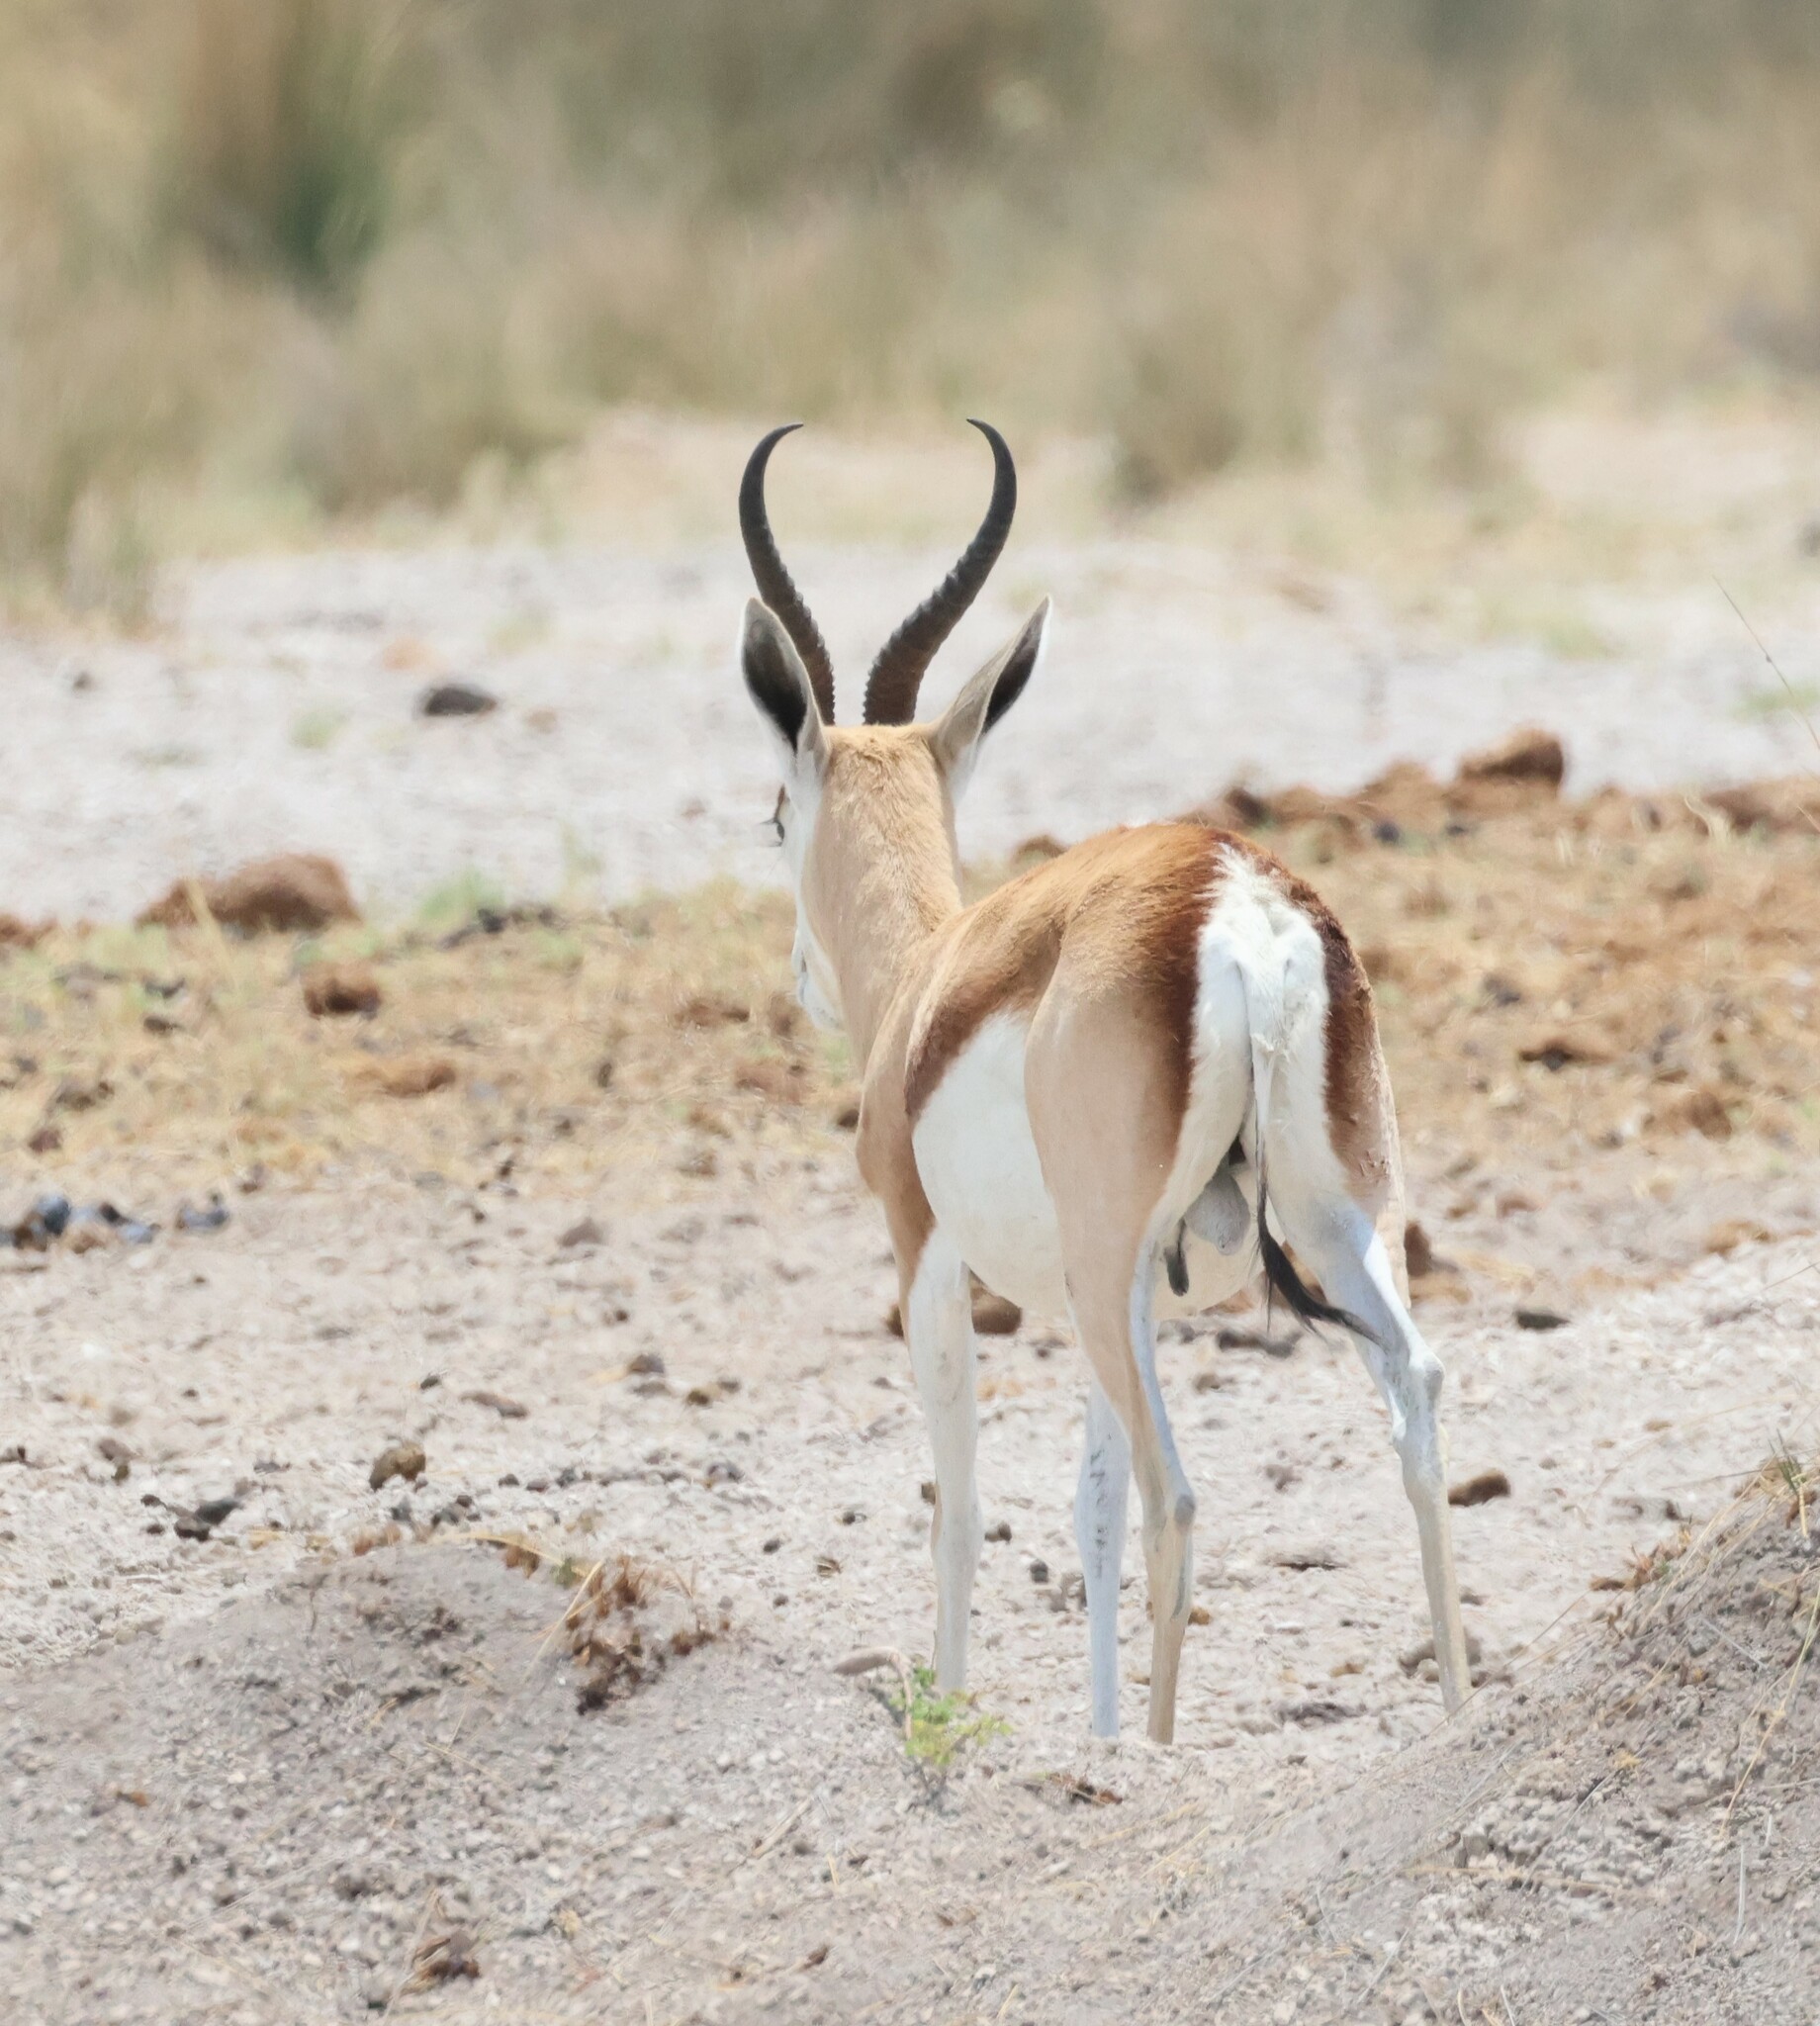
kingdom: Animalia
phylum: Chordata
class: Mammalia
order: Artiodactyla
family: Bovidae
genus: Antidorcas
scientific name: Antidorcas marsupialis
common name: Springbok
